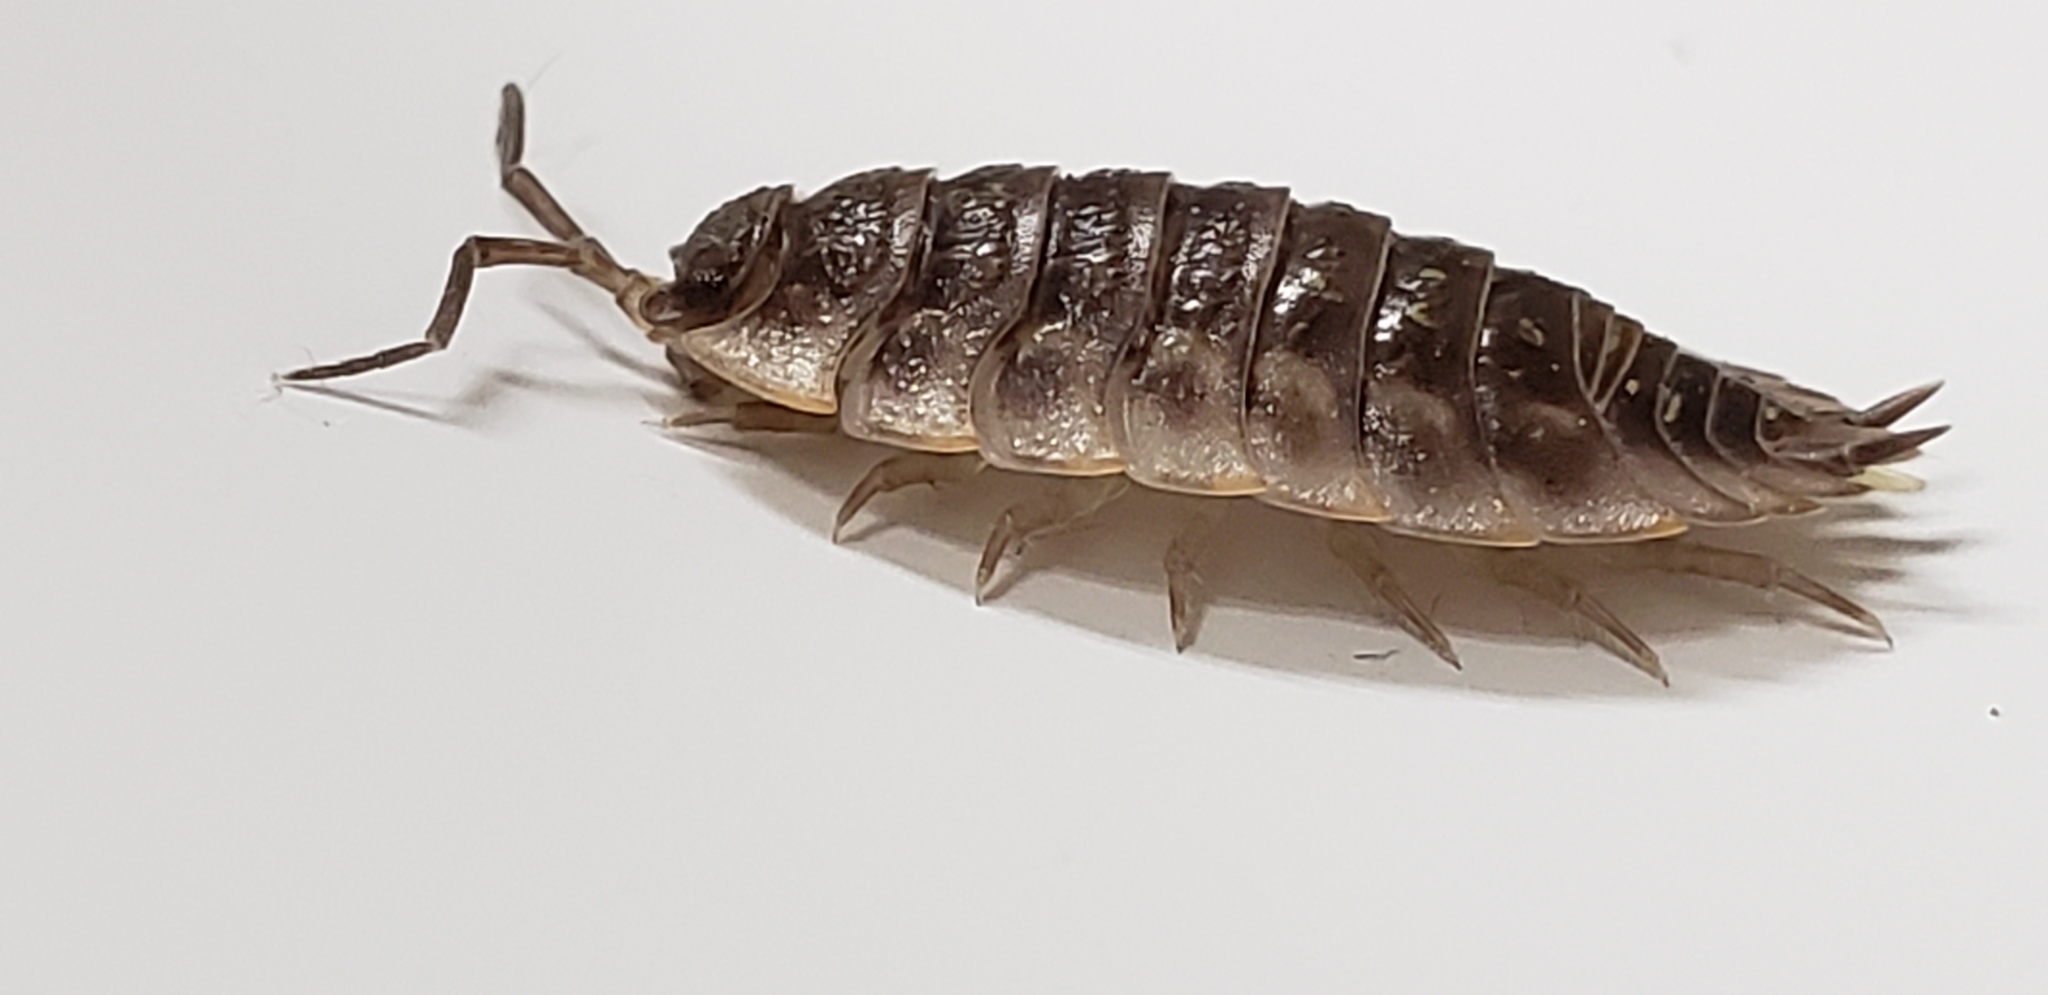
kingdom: Animalia
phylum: Arthropoda
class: Malacostraca
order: Isopoda
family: Oniscidae
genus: Oniscus
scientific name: Oniscus asellus
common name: Common shiny woodlouse
